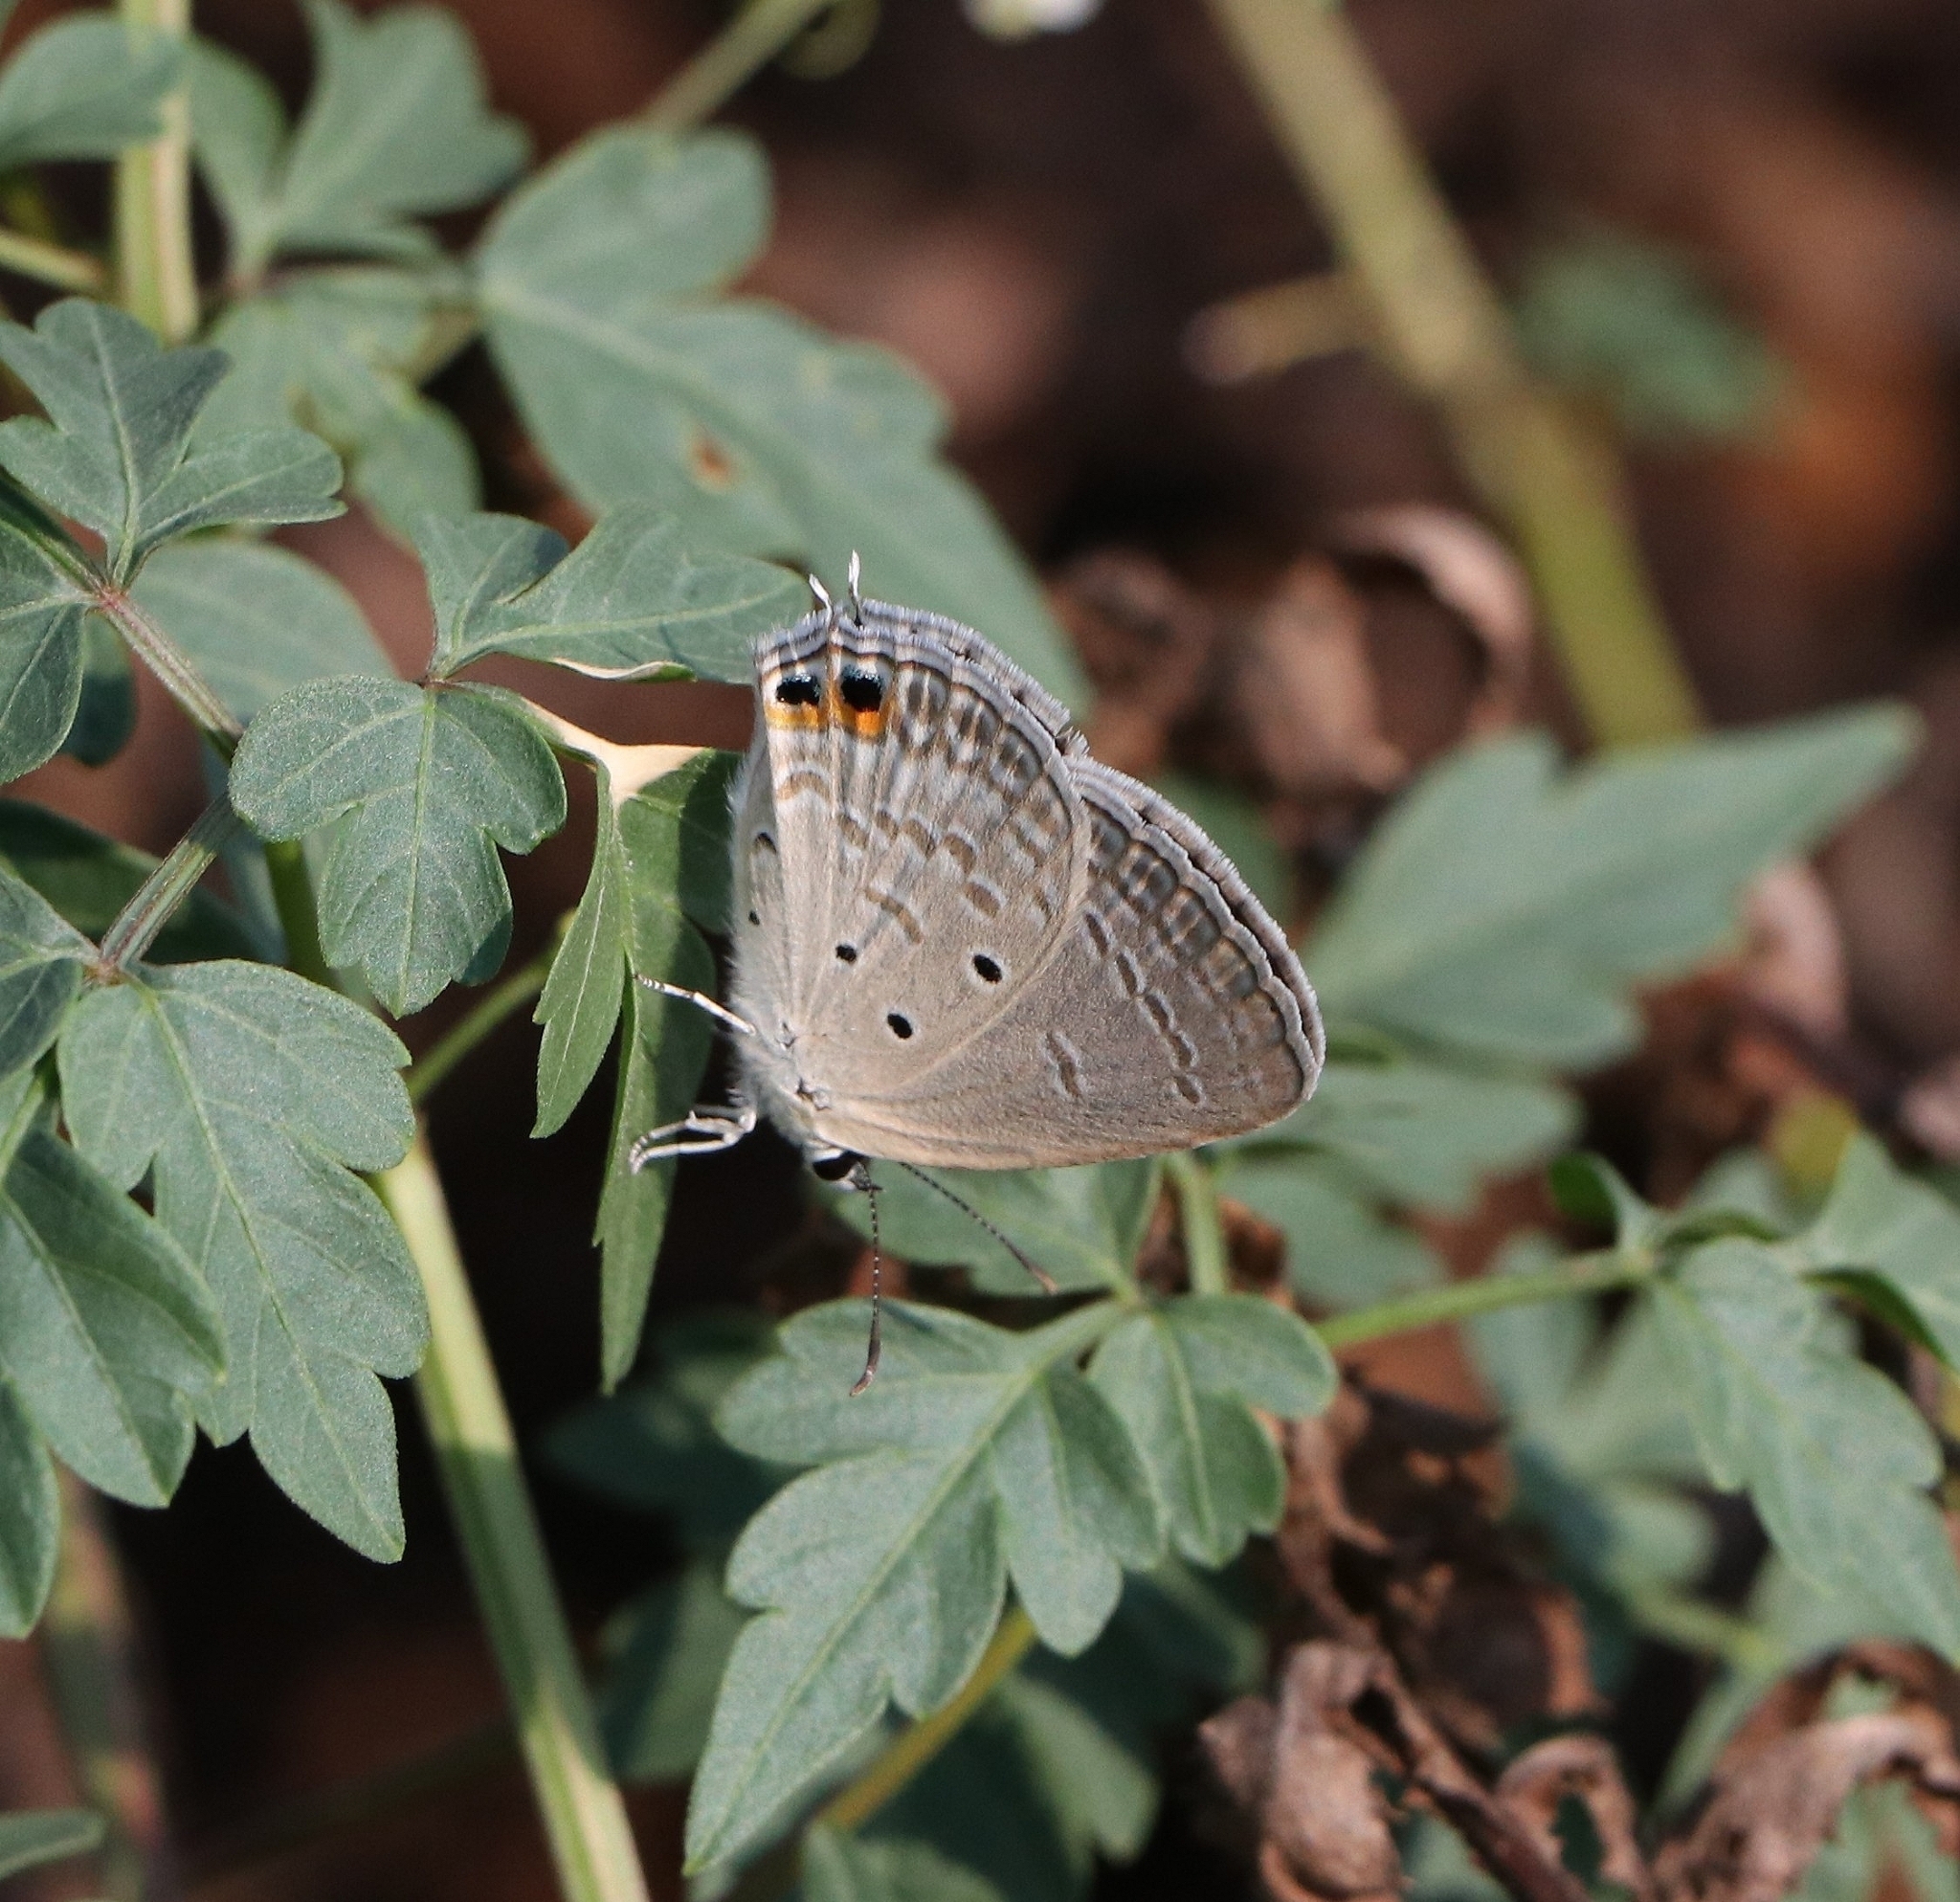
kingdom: Animalia
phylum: Arthropoda
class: Insecta
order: Lepidoptera
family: Lycaenidae
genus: Euchrysops
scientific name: Euchrysops cnejus
